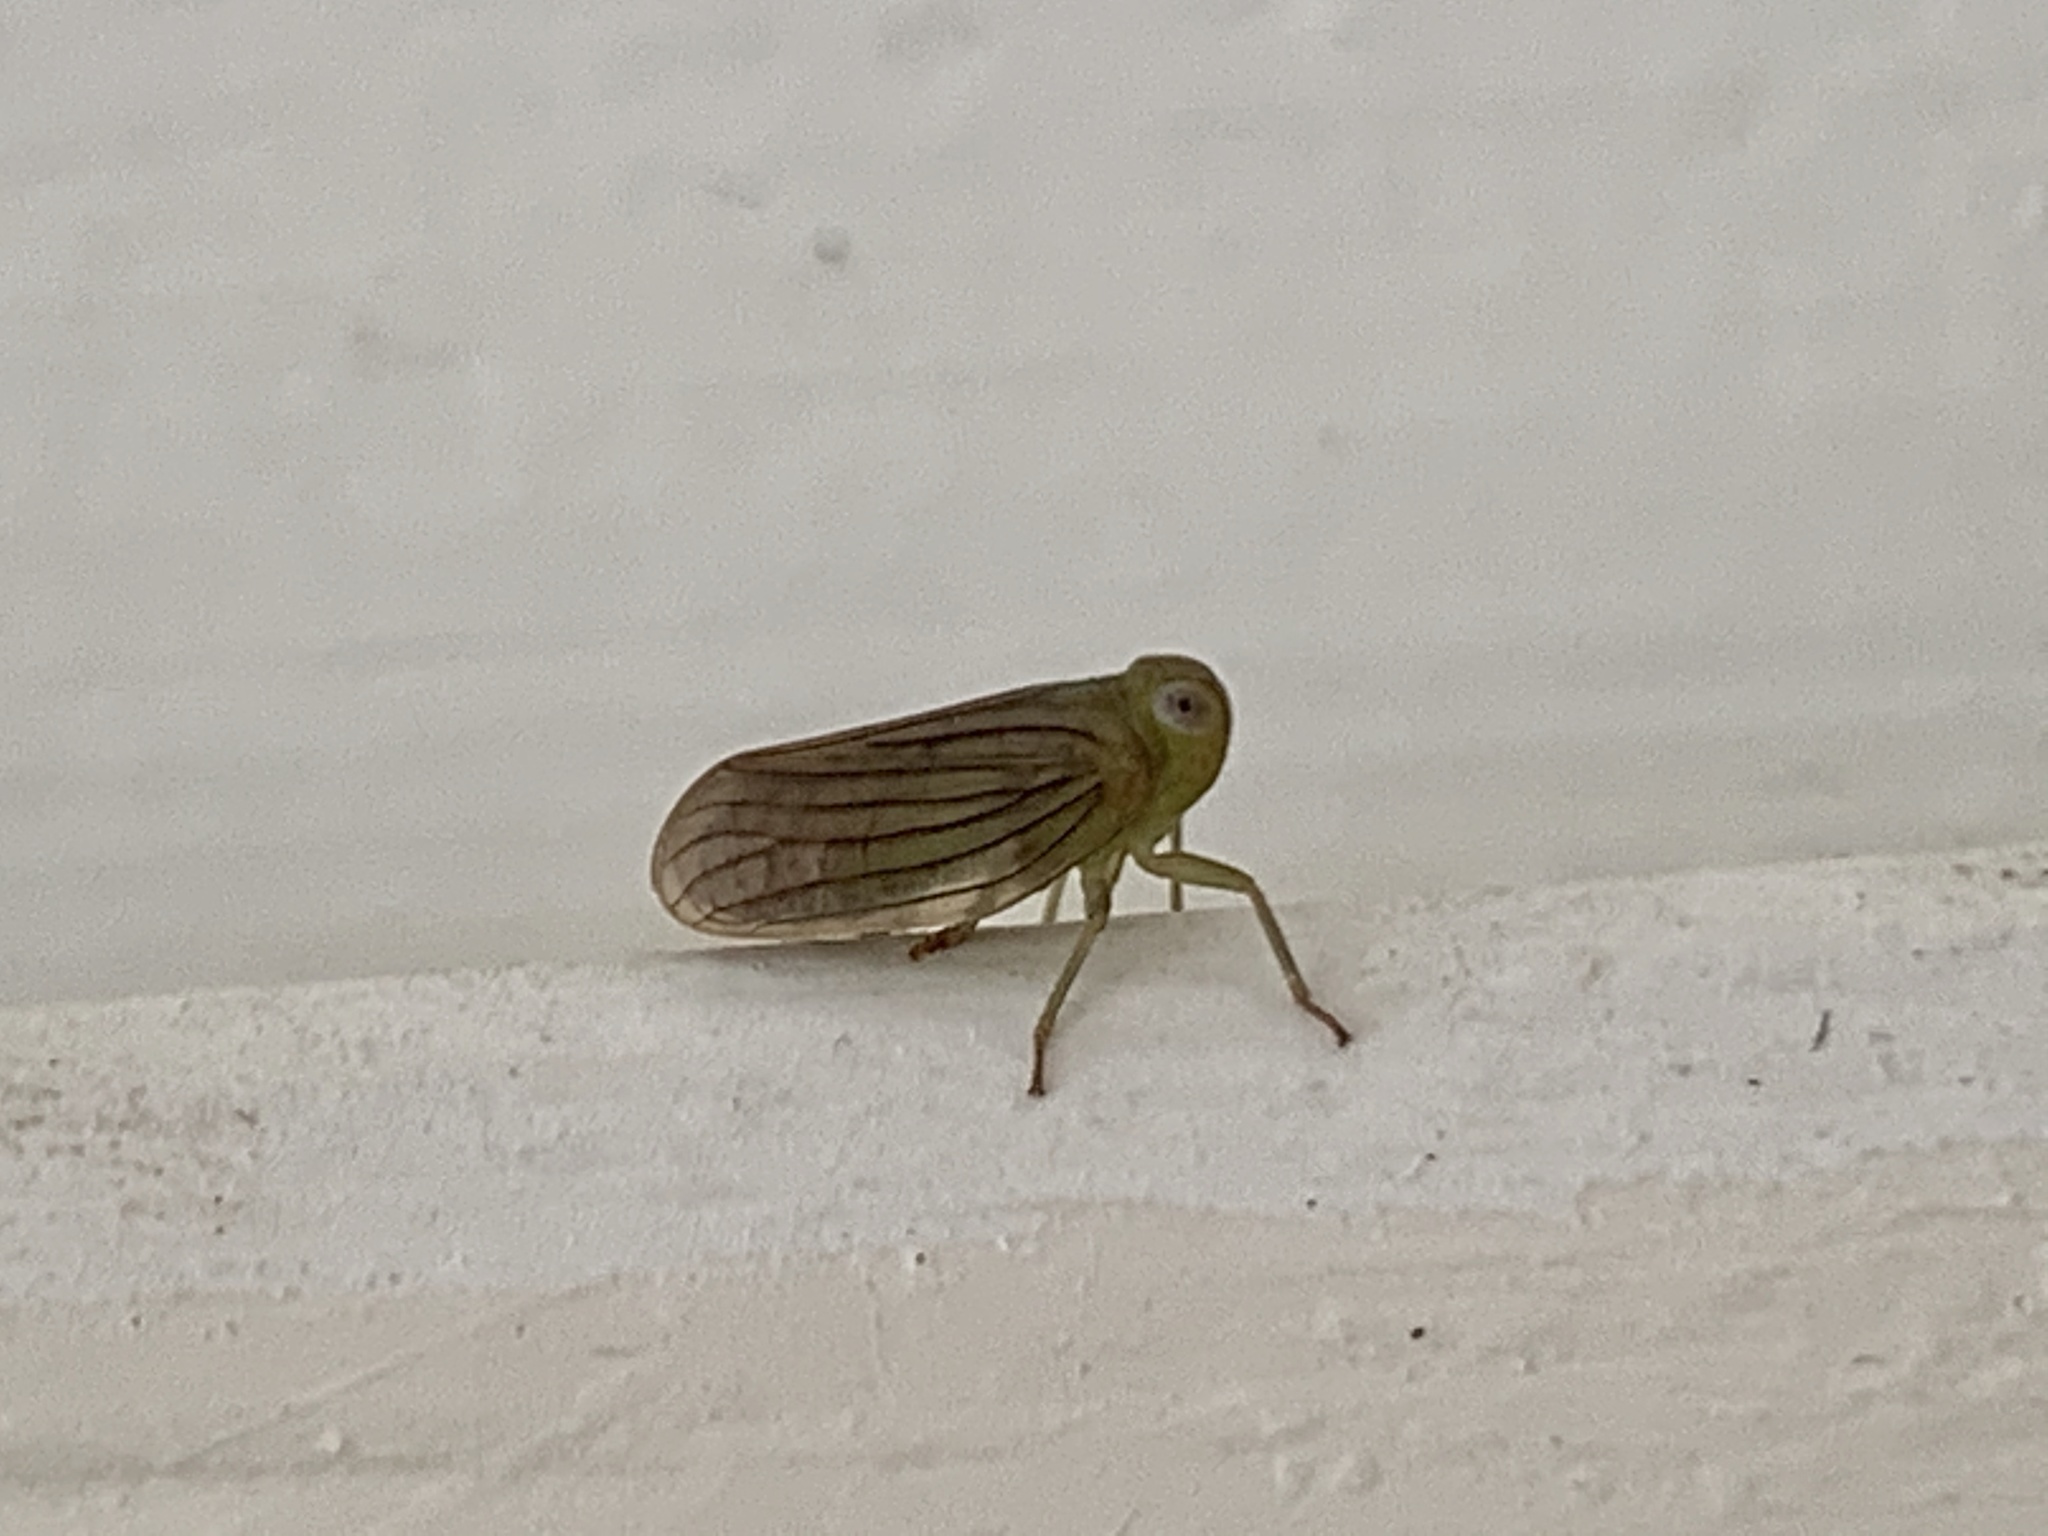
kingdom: Animalia
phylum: Arthropoda
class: Insecta
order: Hemiptera
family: Issidae
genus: Aplos
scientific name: Aplos simplex
